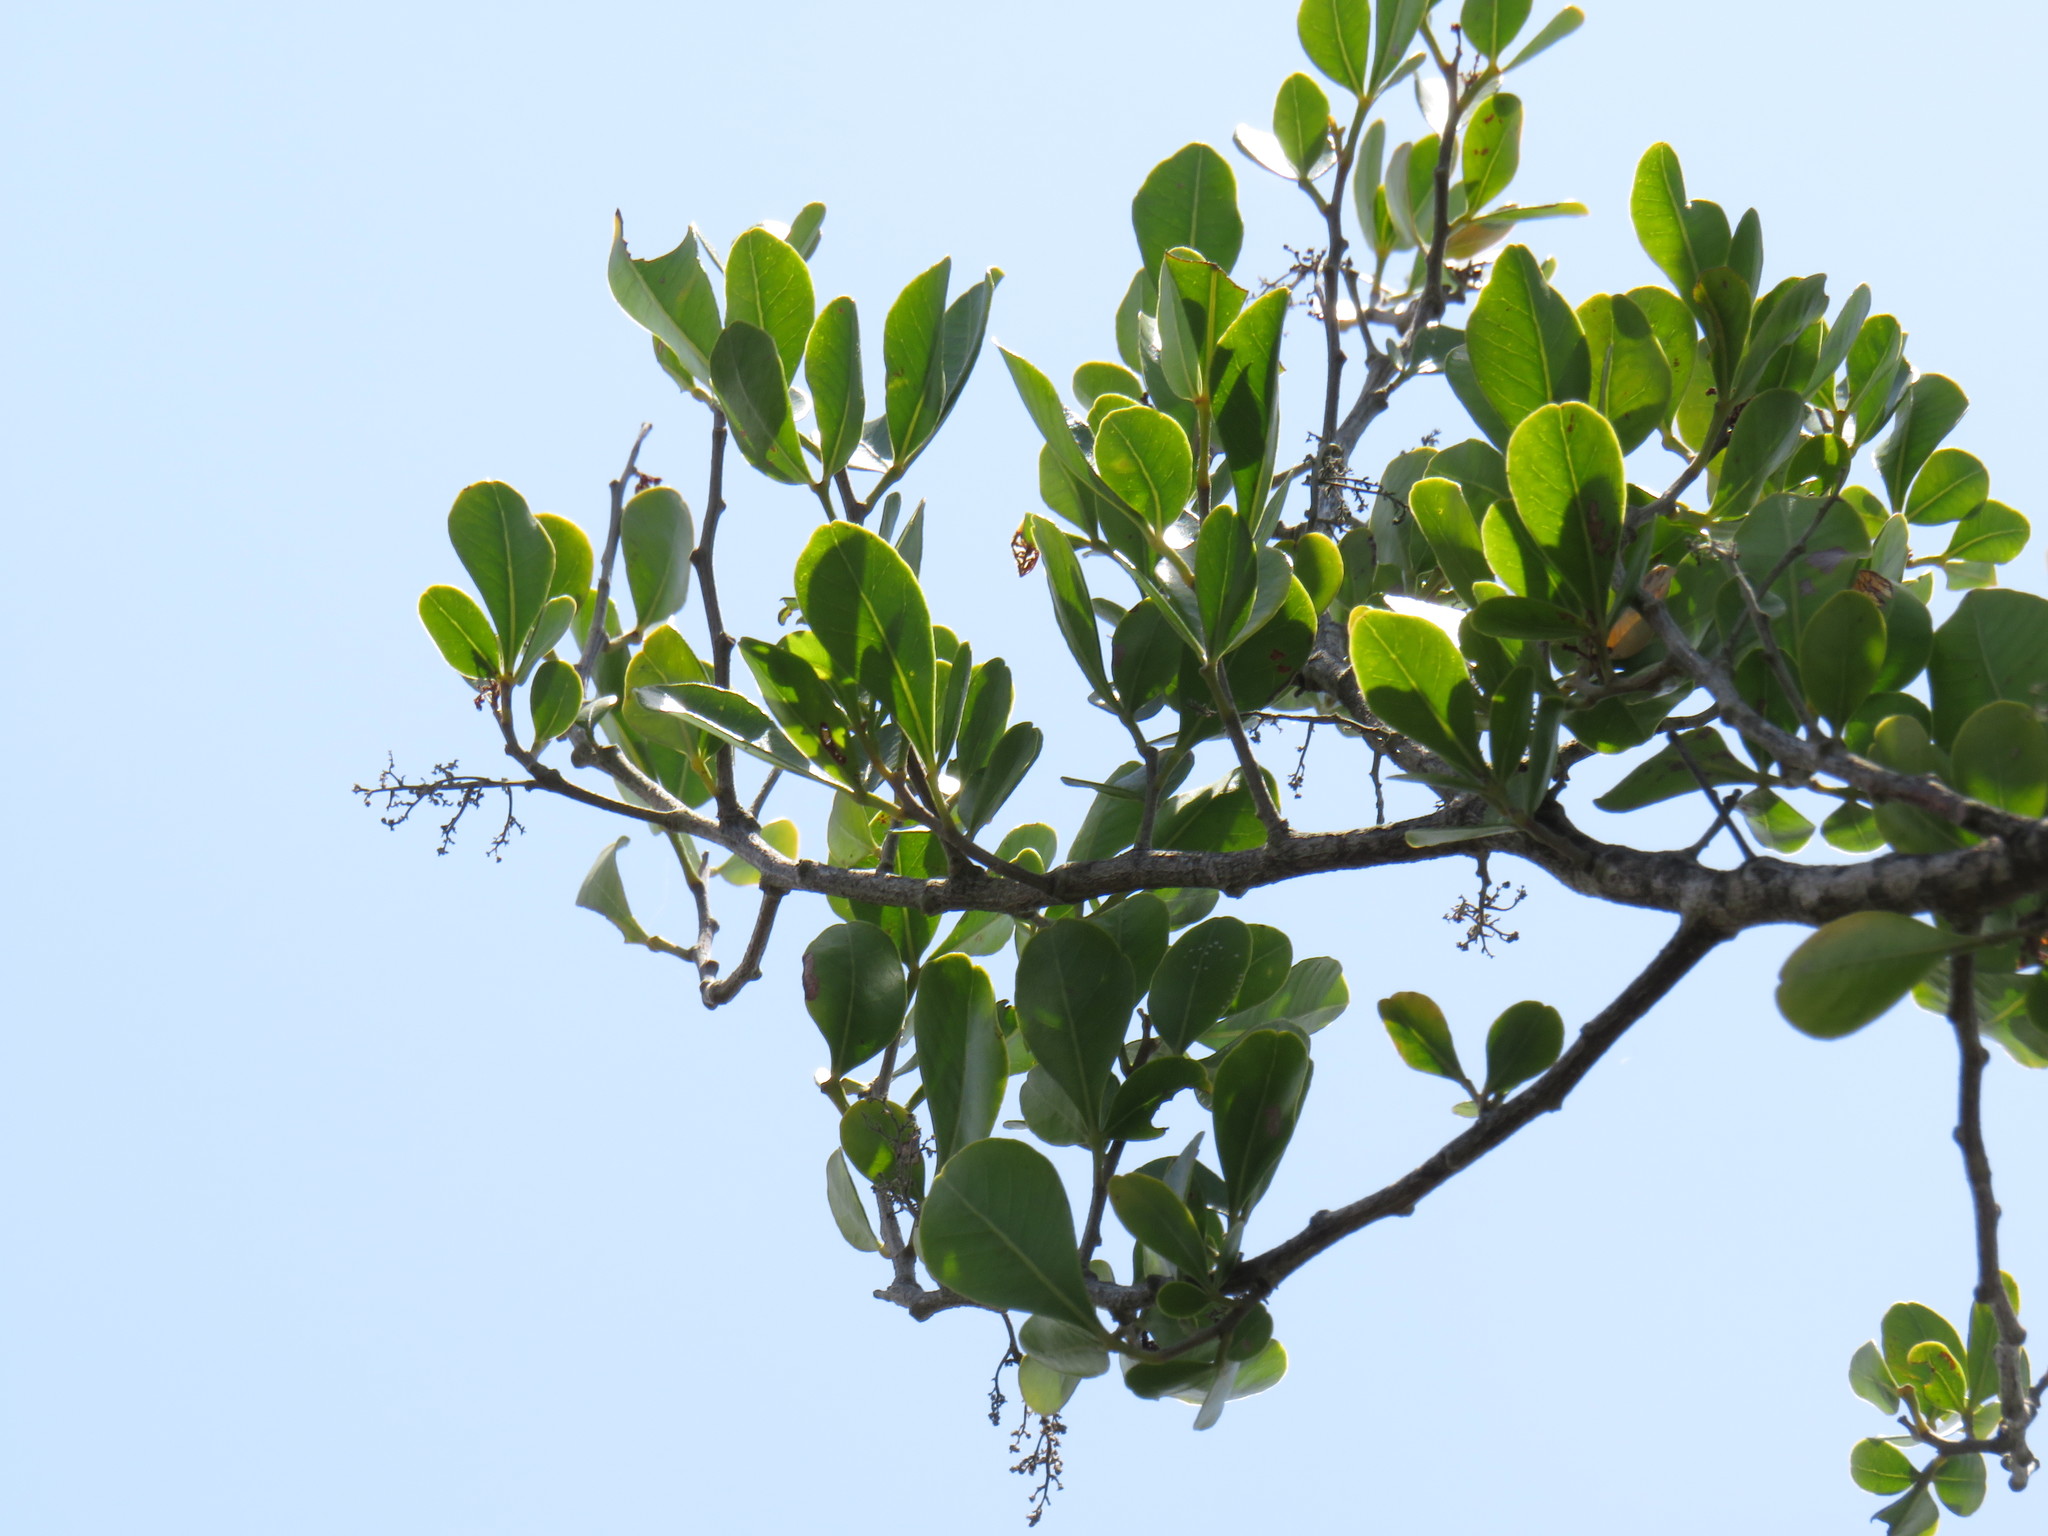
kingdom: Plantae
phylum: Tracheophyta
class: Magnoliopsida
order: Sapindales
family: Anacardiaceae
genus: Searsia
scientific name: Searsia lucida
